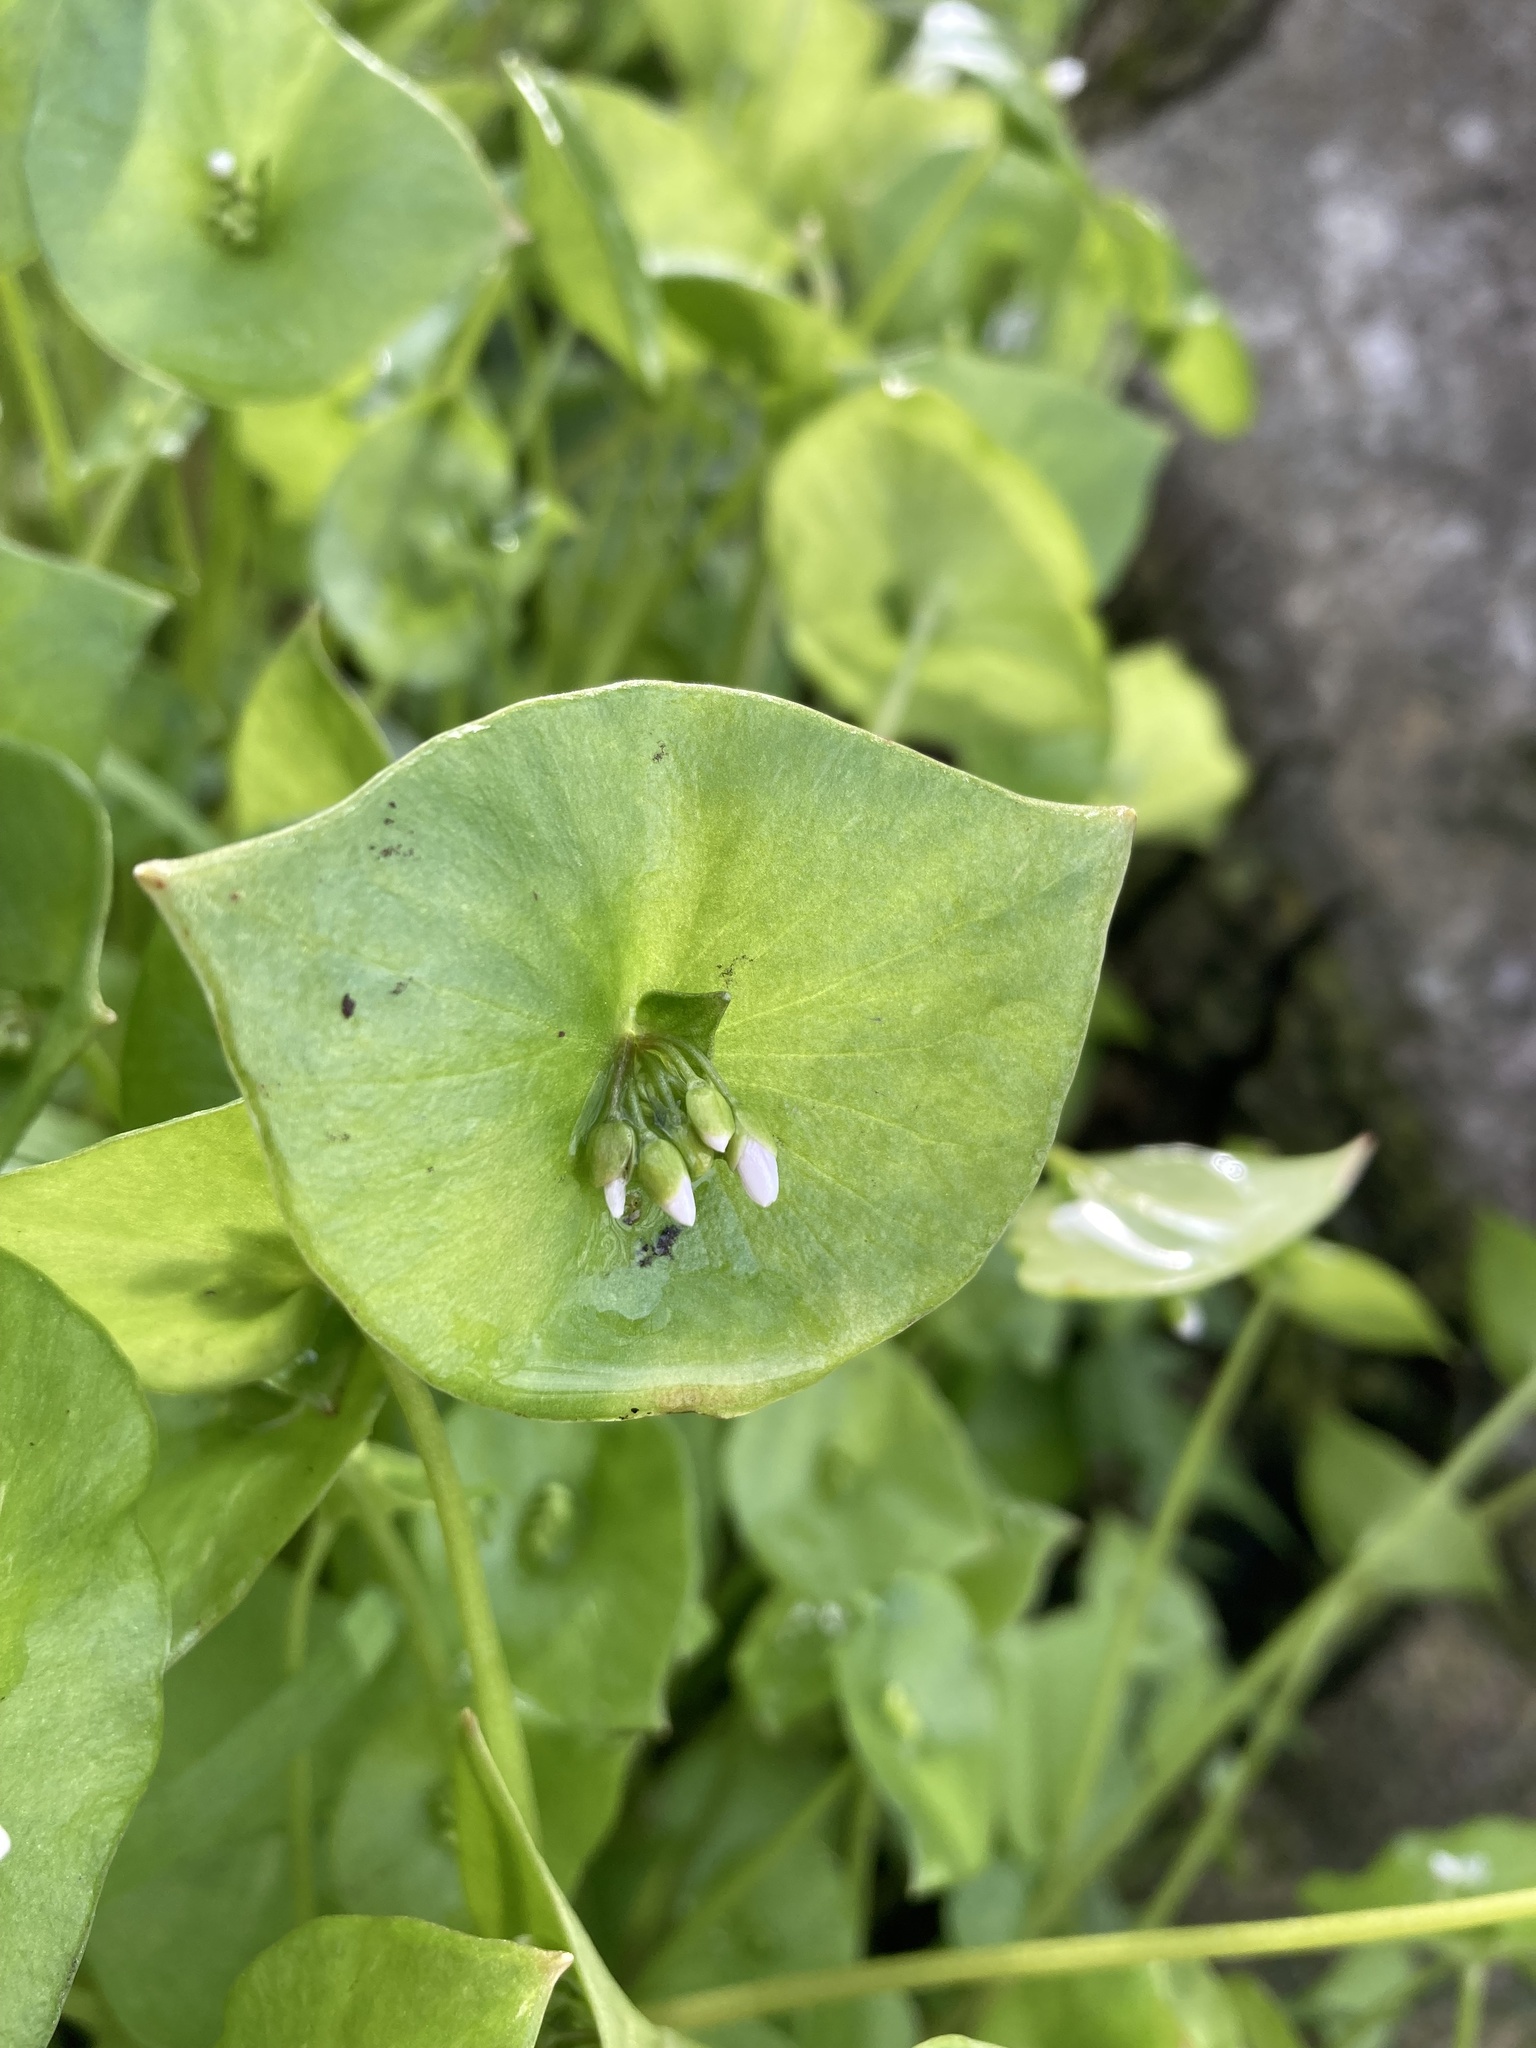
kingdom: Plantae
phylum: Tracheophyta
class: Magnoliopsida
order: Caryophyllales
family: Montiaceae
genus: Claytonia
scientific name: Claytonia perfoliata
